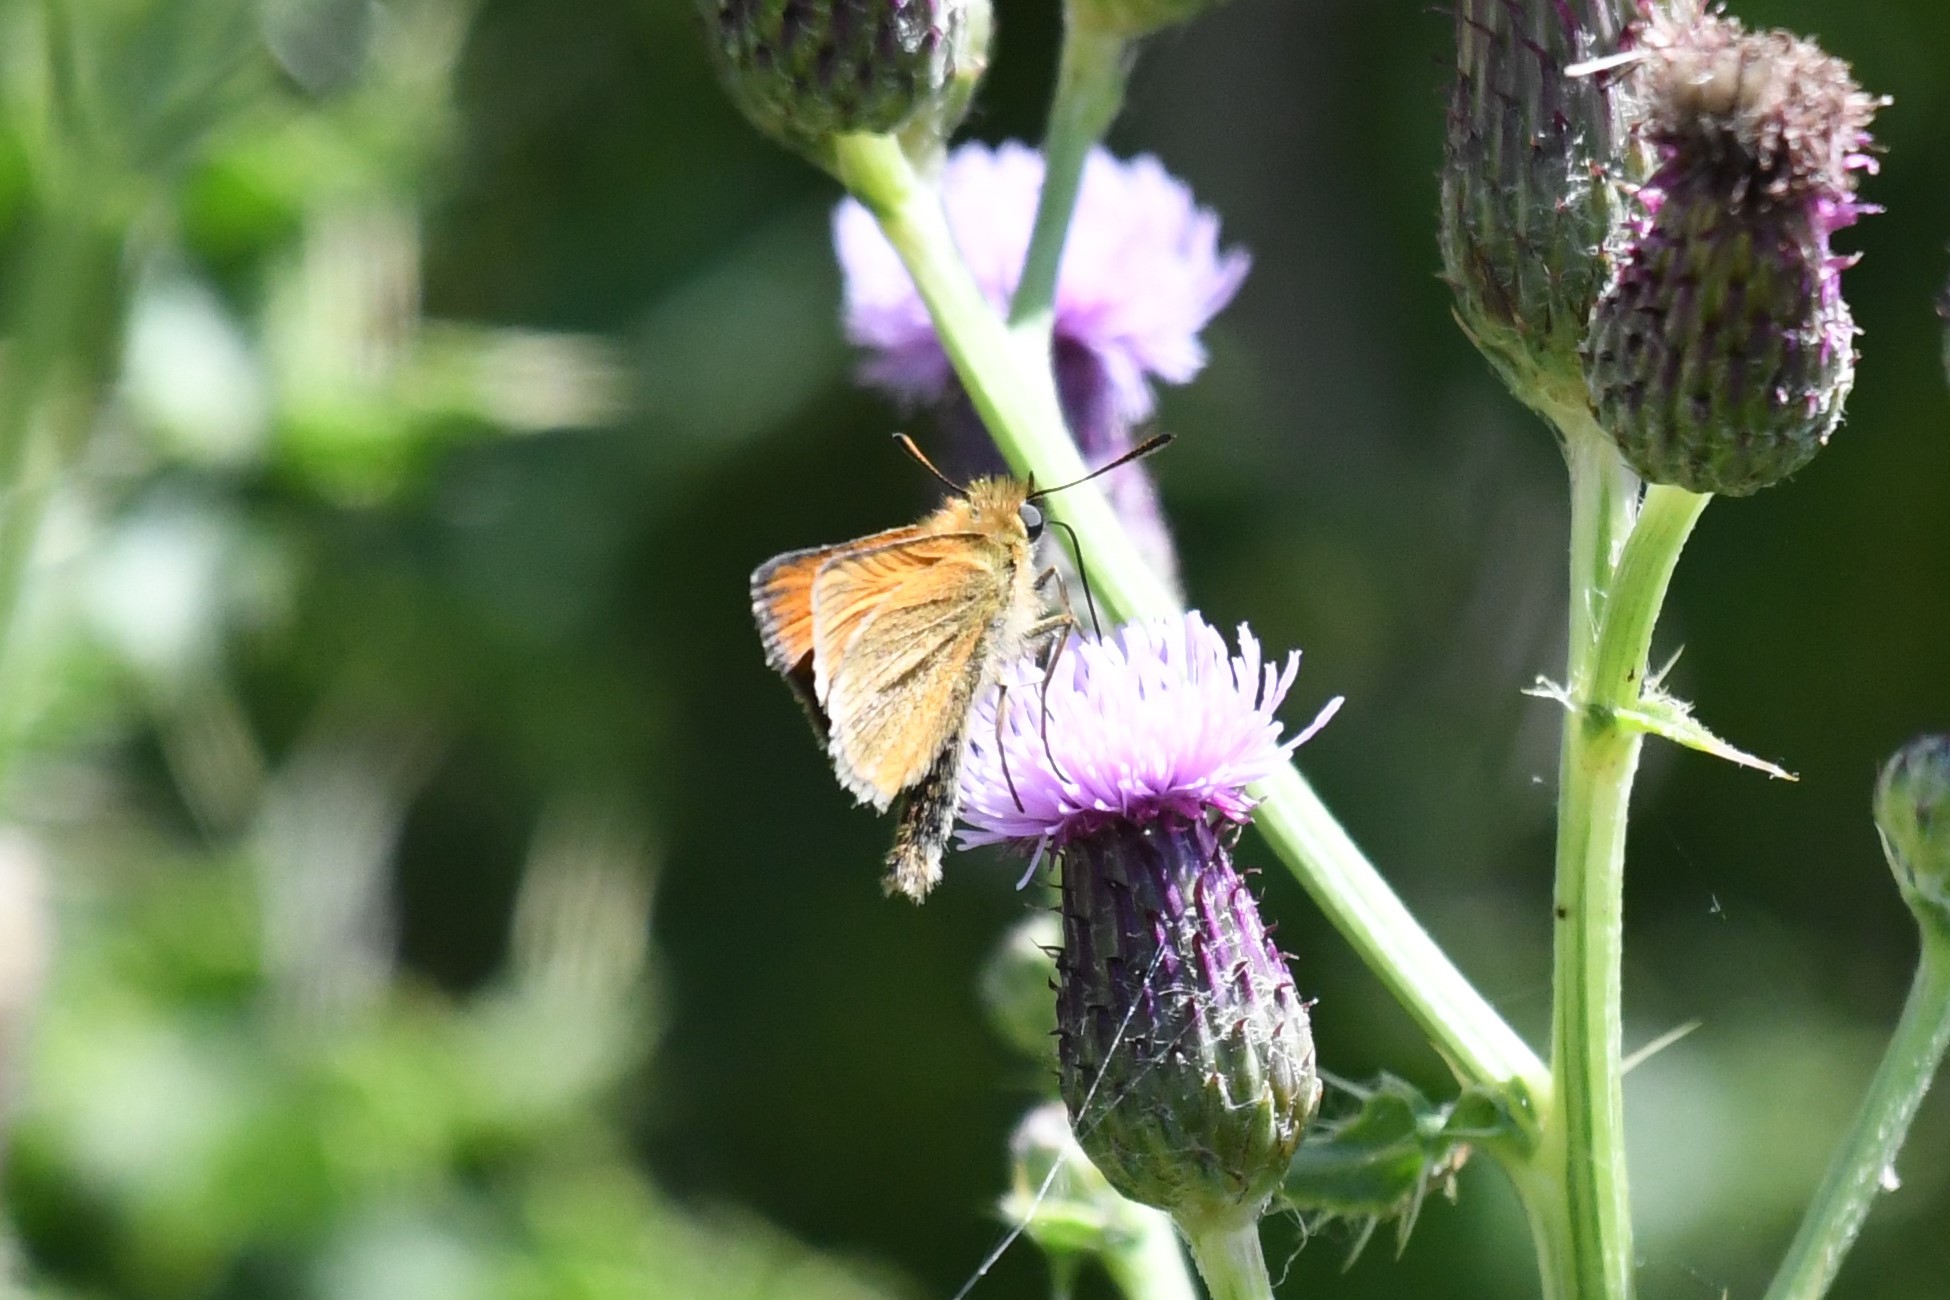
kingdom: Animalia
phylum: Arthropoda
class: Insecta
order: Lepidoptera
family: Hesperiidae
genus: Thymelicus
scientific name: Thymelicus lineola
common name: Essex skipper
